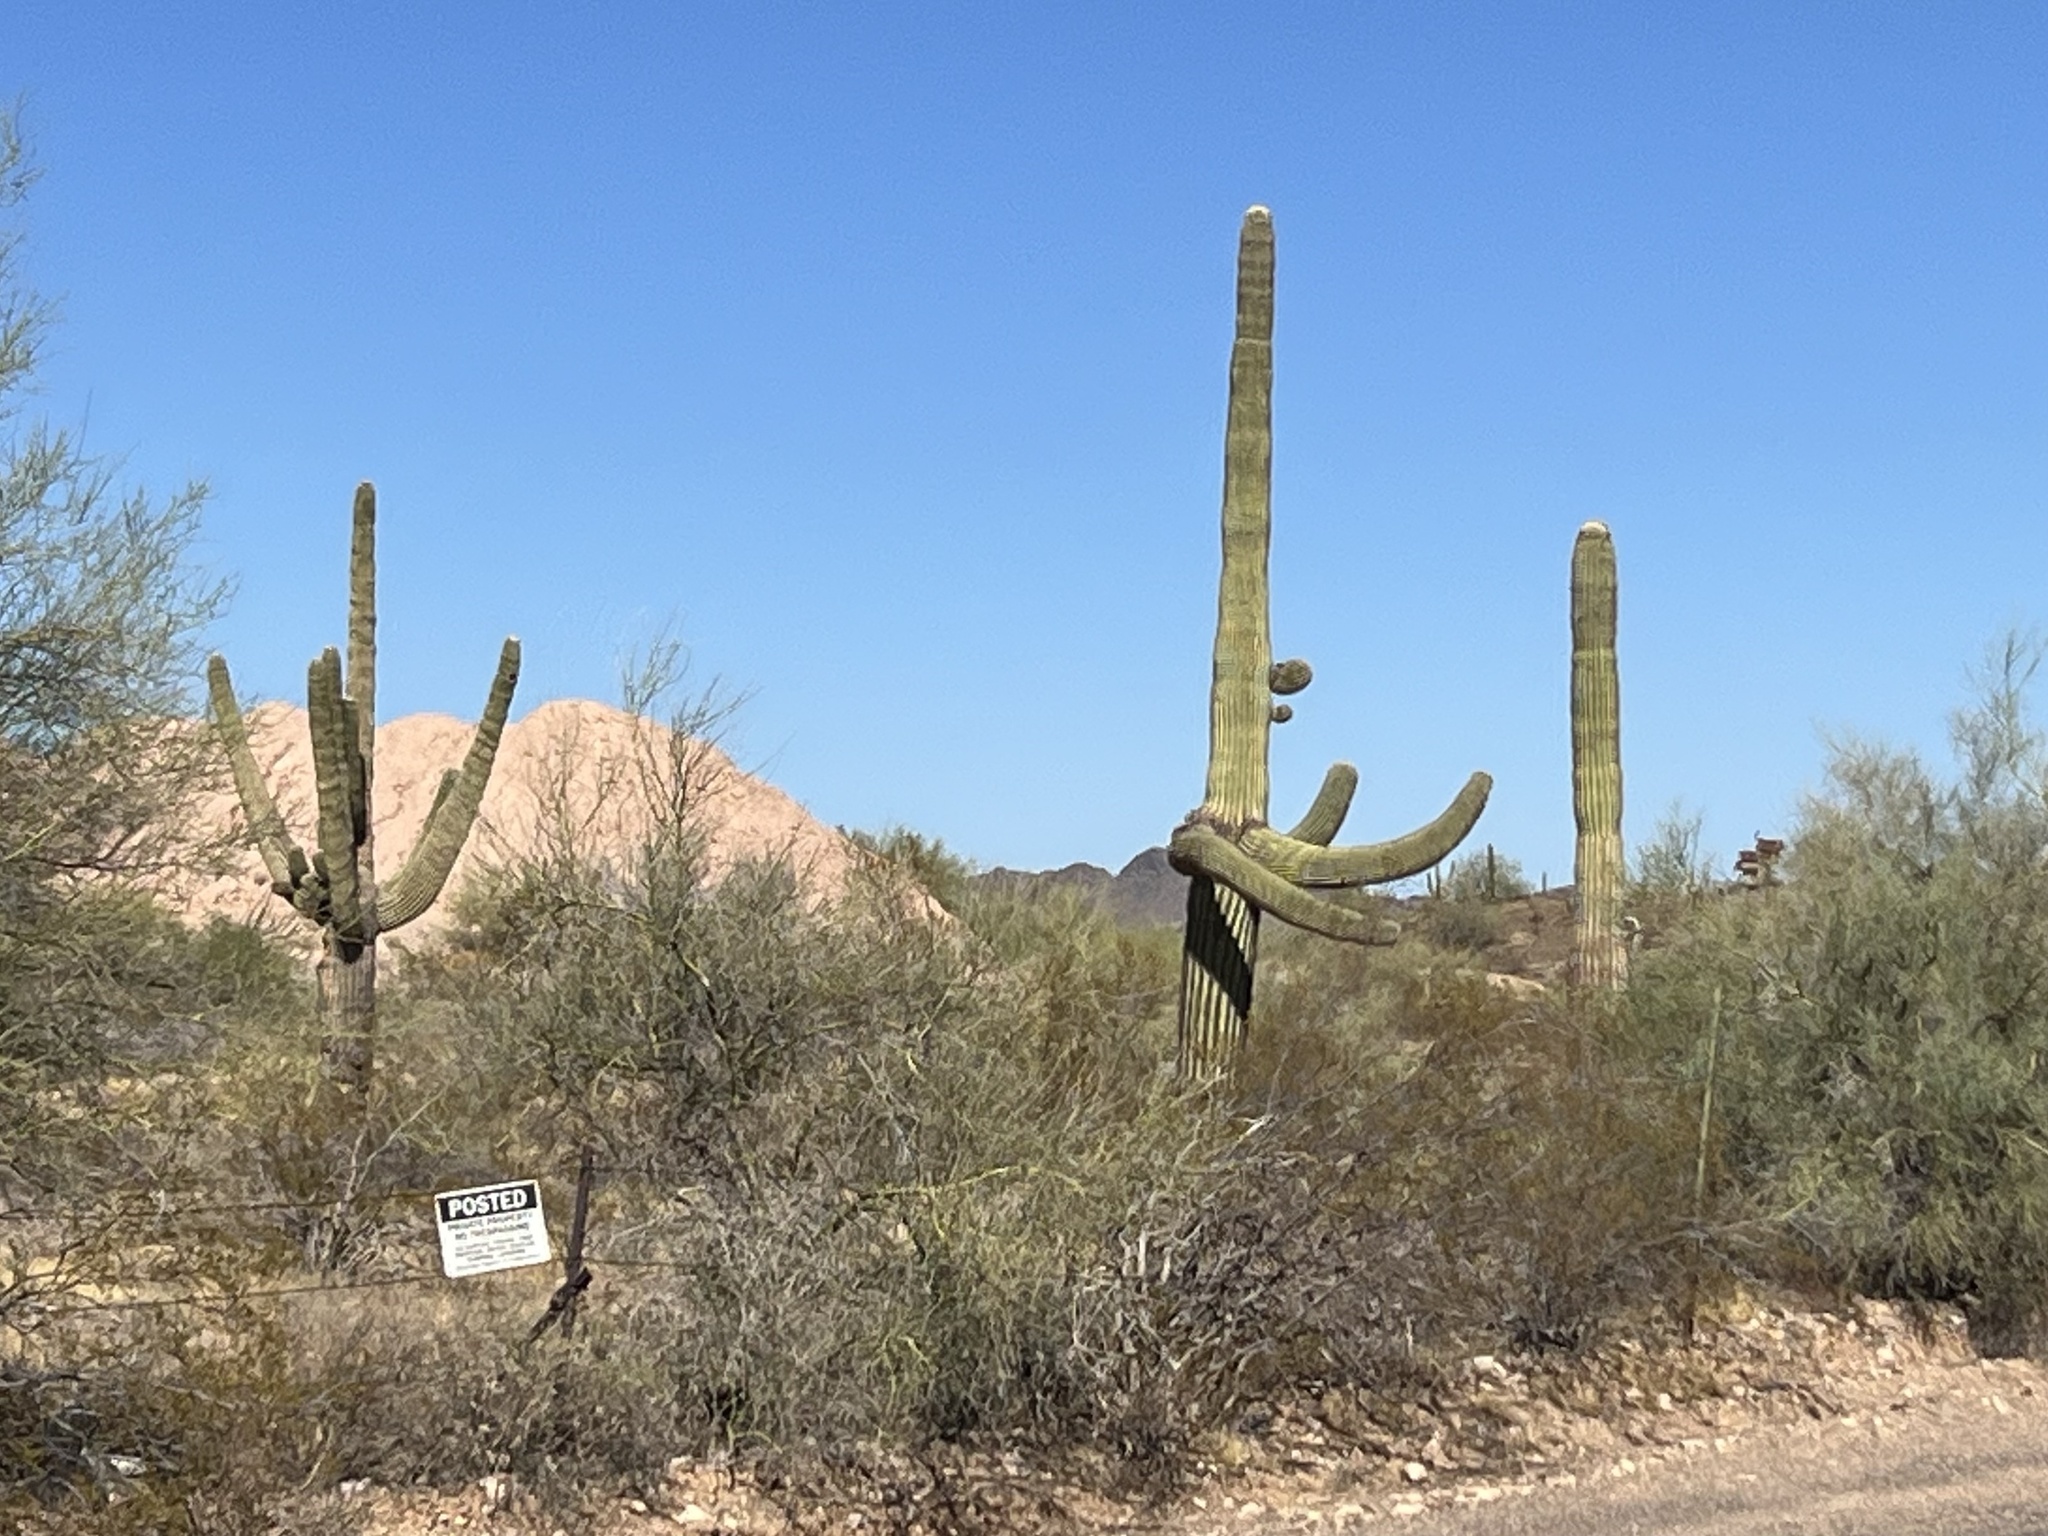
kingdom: Plantae
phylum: Tracheophyta
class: Magnoliopsida
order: Caryophyllales
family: Cactaceae
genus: Carnegiea
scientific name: Carnegiea gigantea
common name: Saguaro
